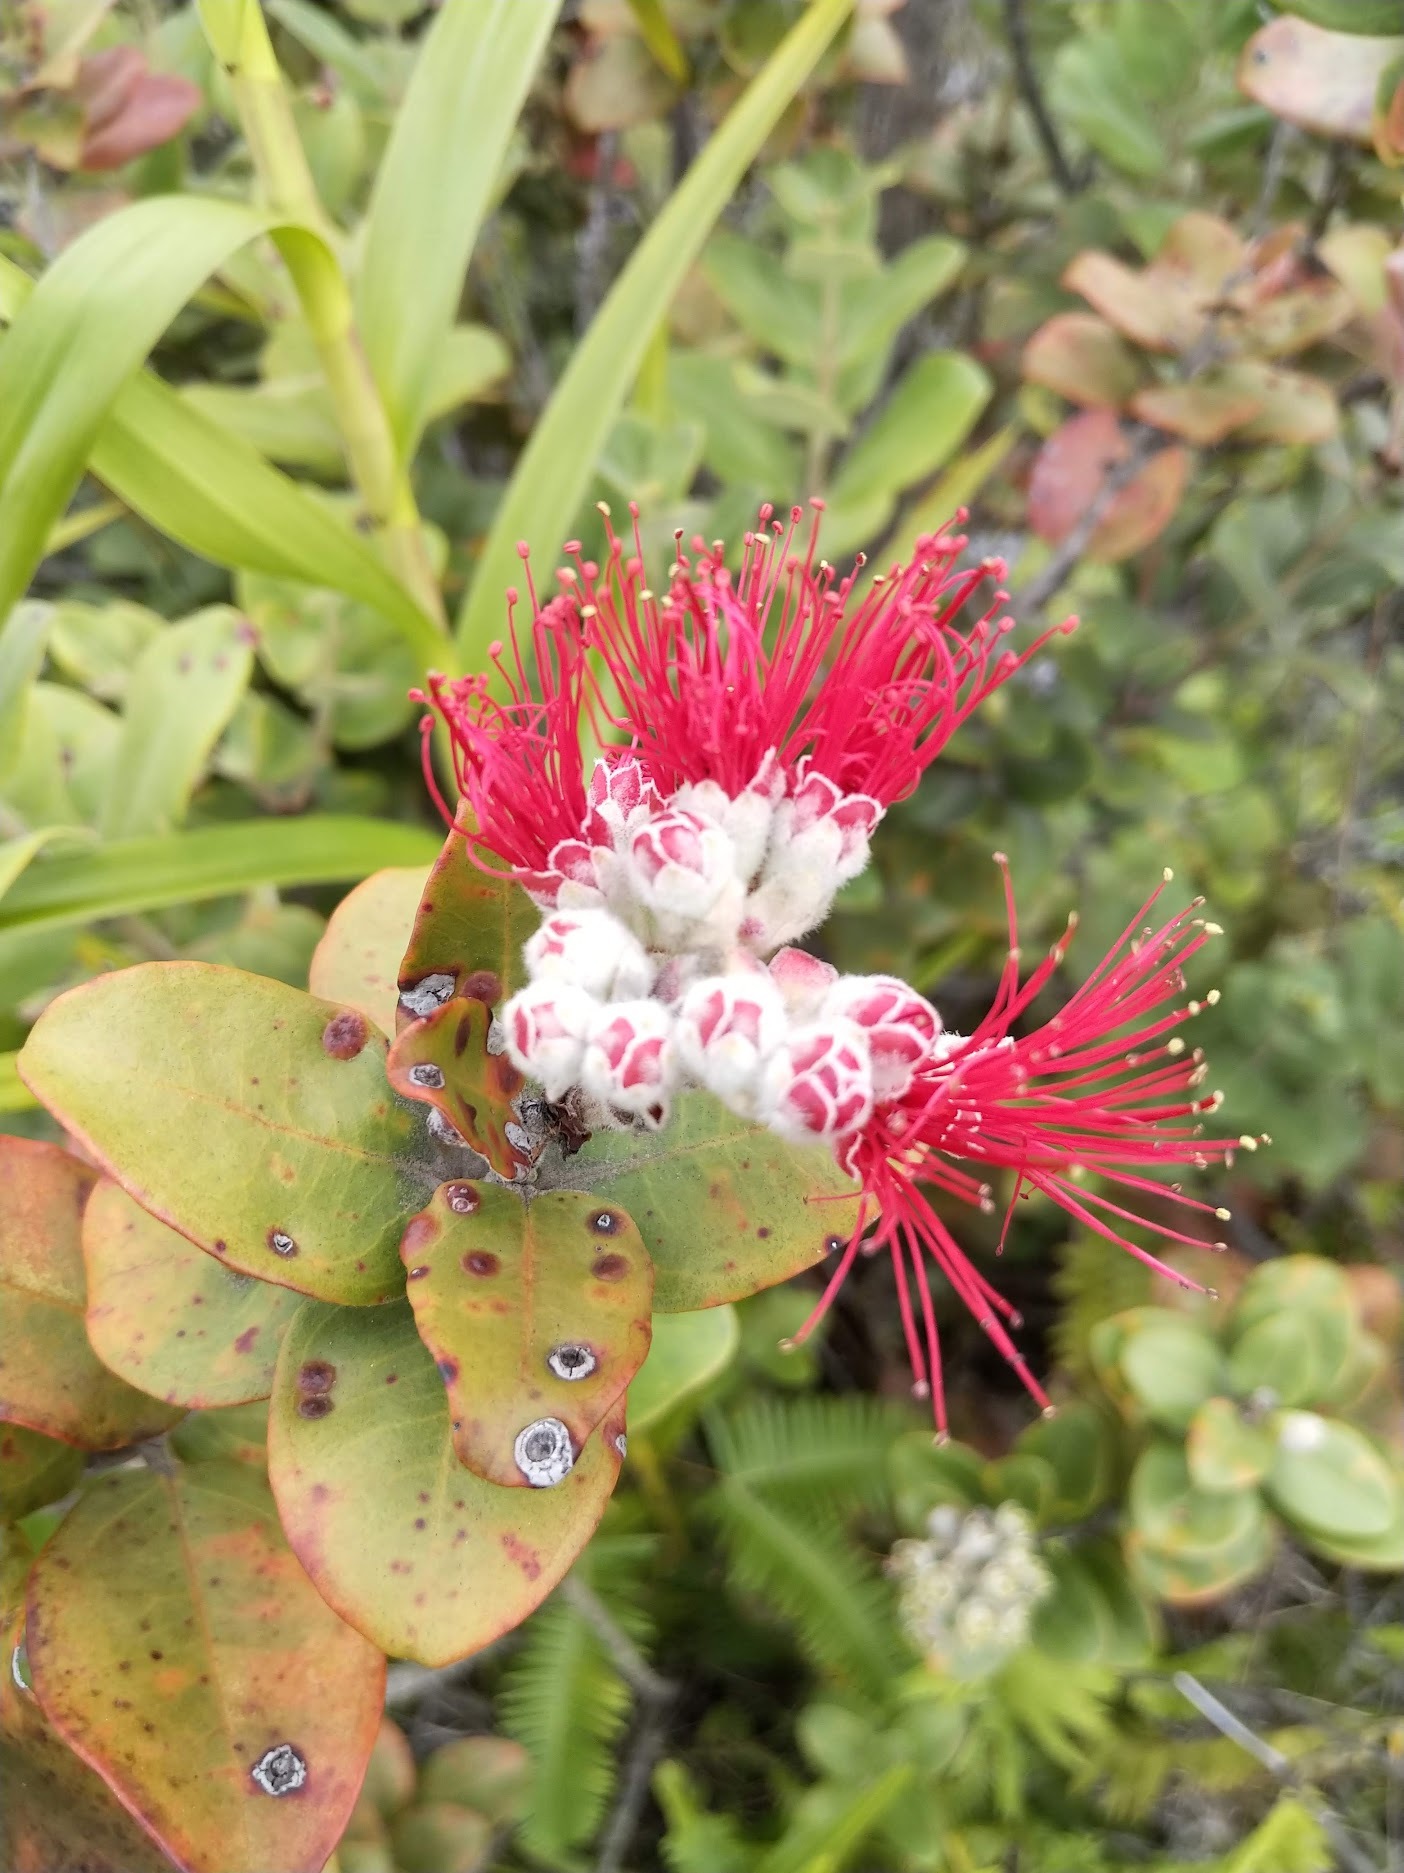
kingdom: Plantae
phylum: Tracheophyta
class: Magnoliopsida
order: Myrtales
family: Myrtaceae
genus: Metrosideros
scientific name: Metrosideros polymorpha
